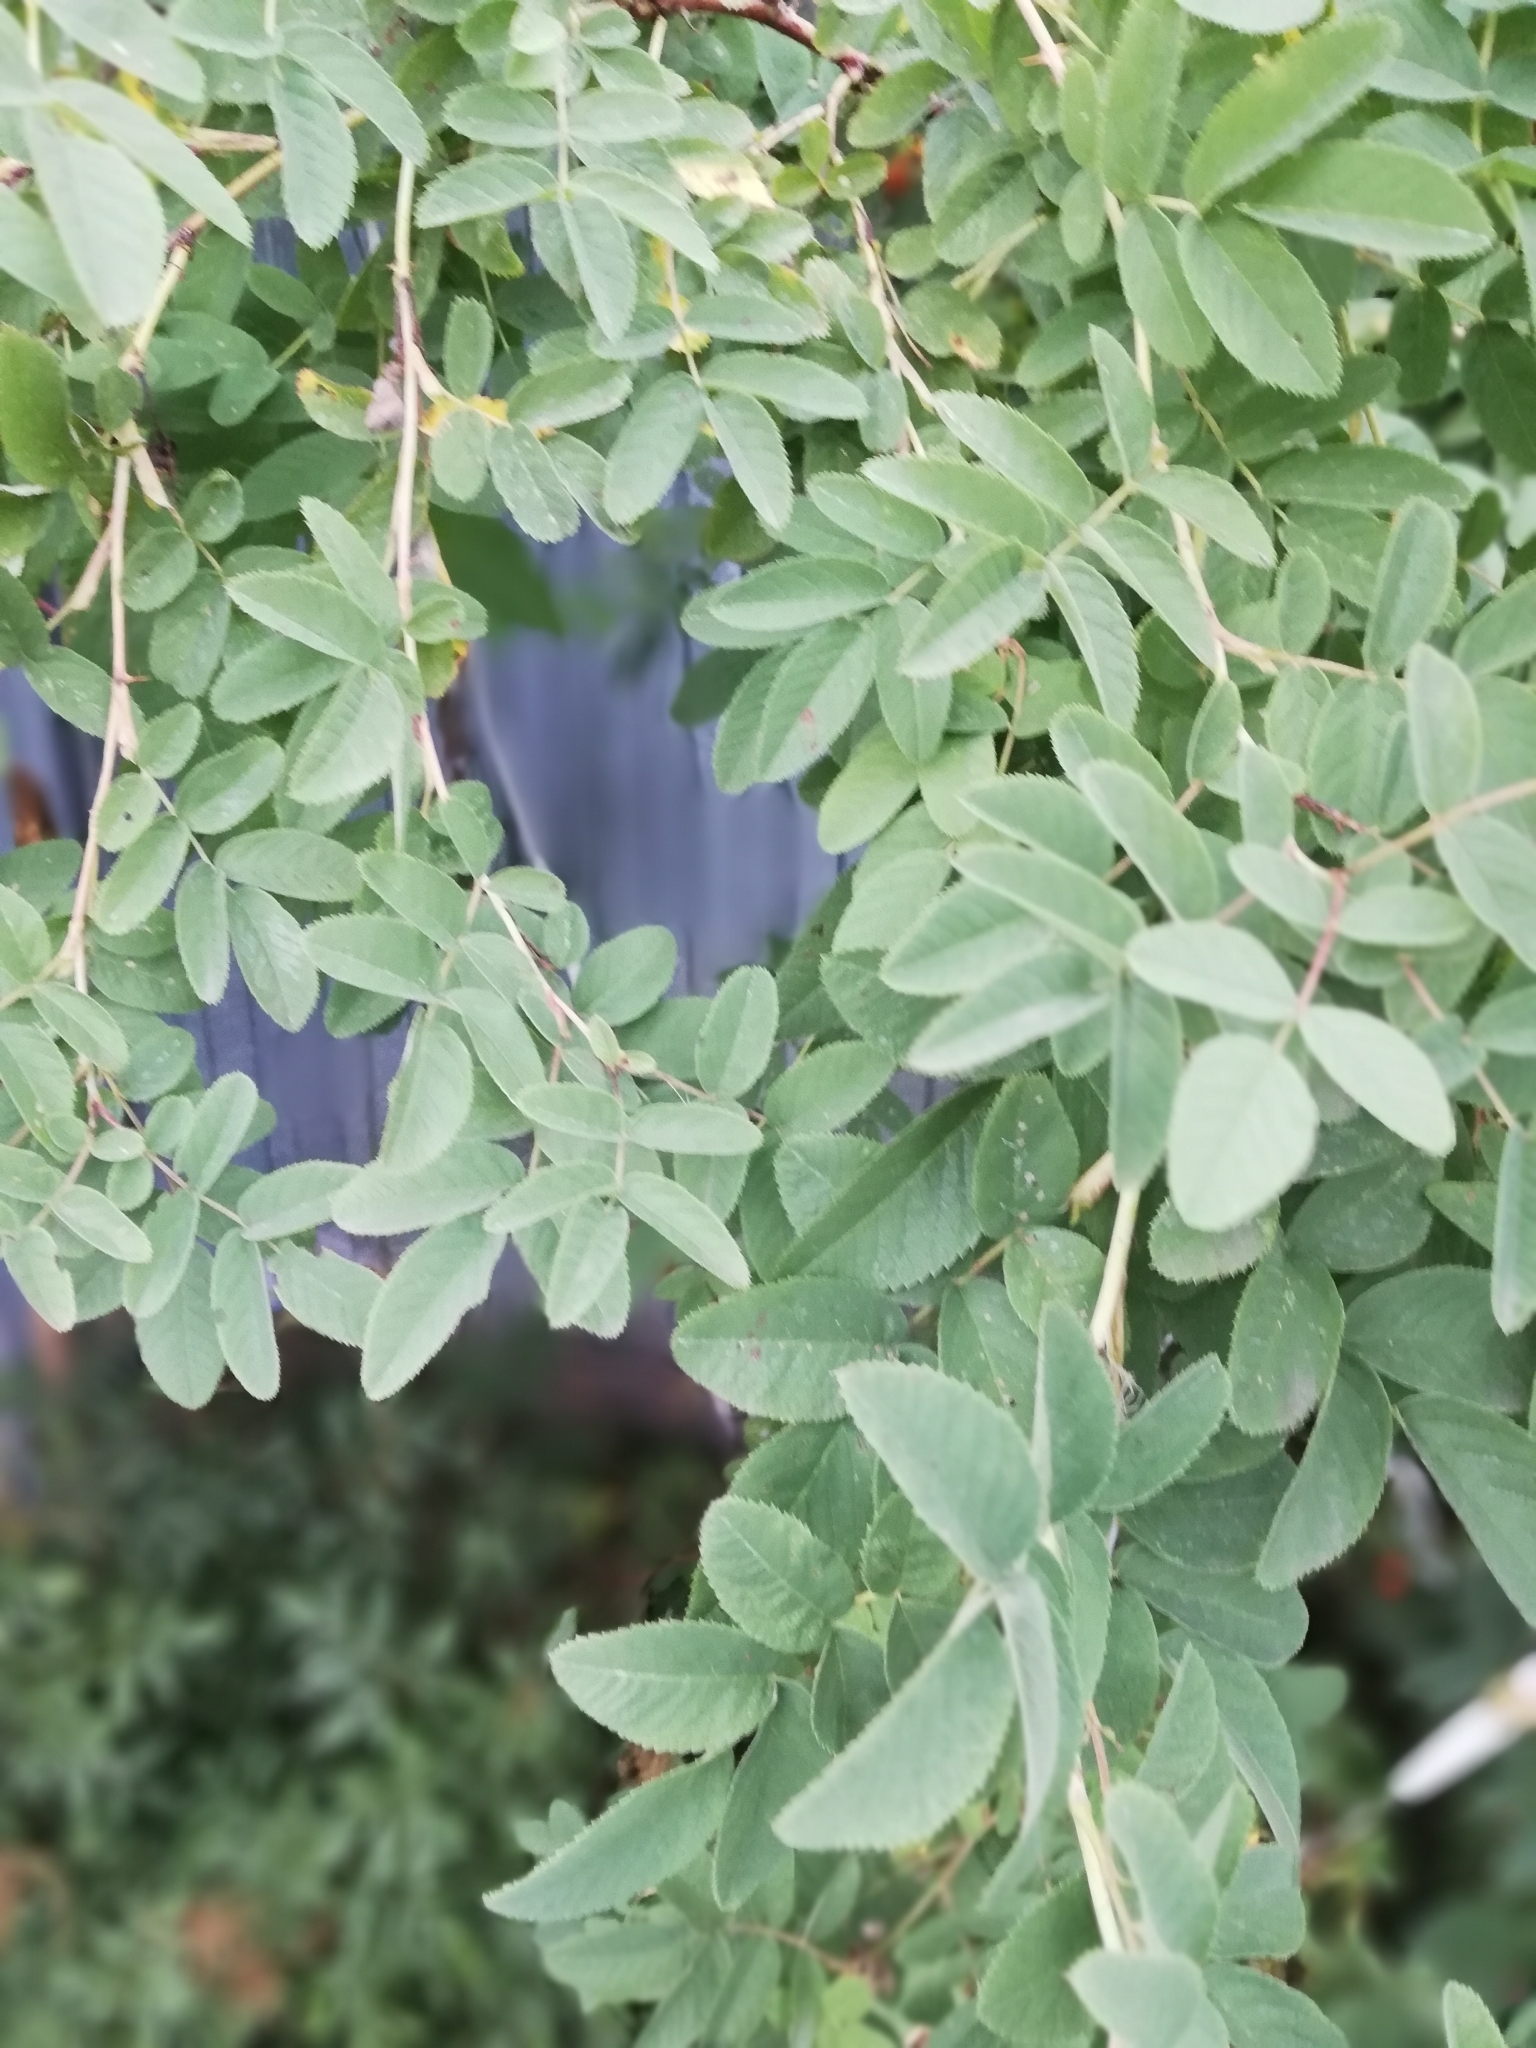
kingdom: Plantae
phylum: Tracheophyta
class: Magnoliopsida
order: Rosales
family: Rosaceae
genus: Rosa
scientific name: Rosa majalis
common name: Cinnamon rose
